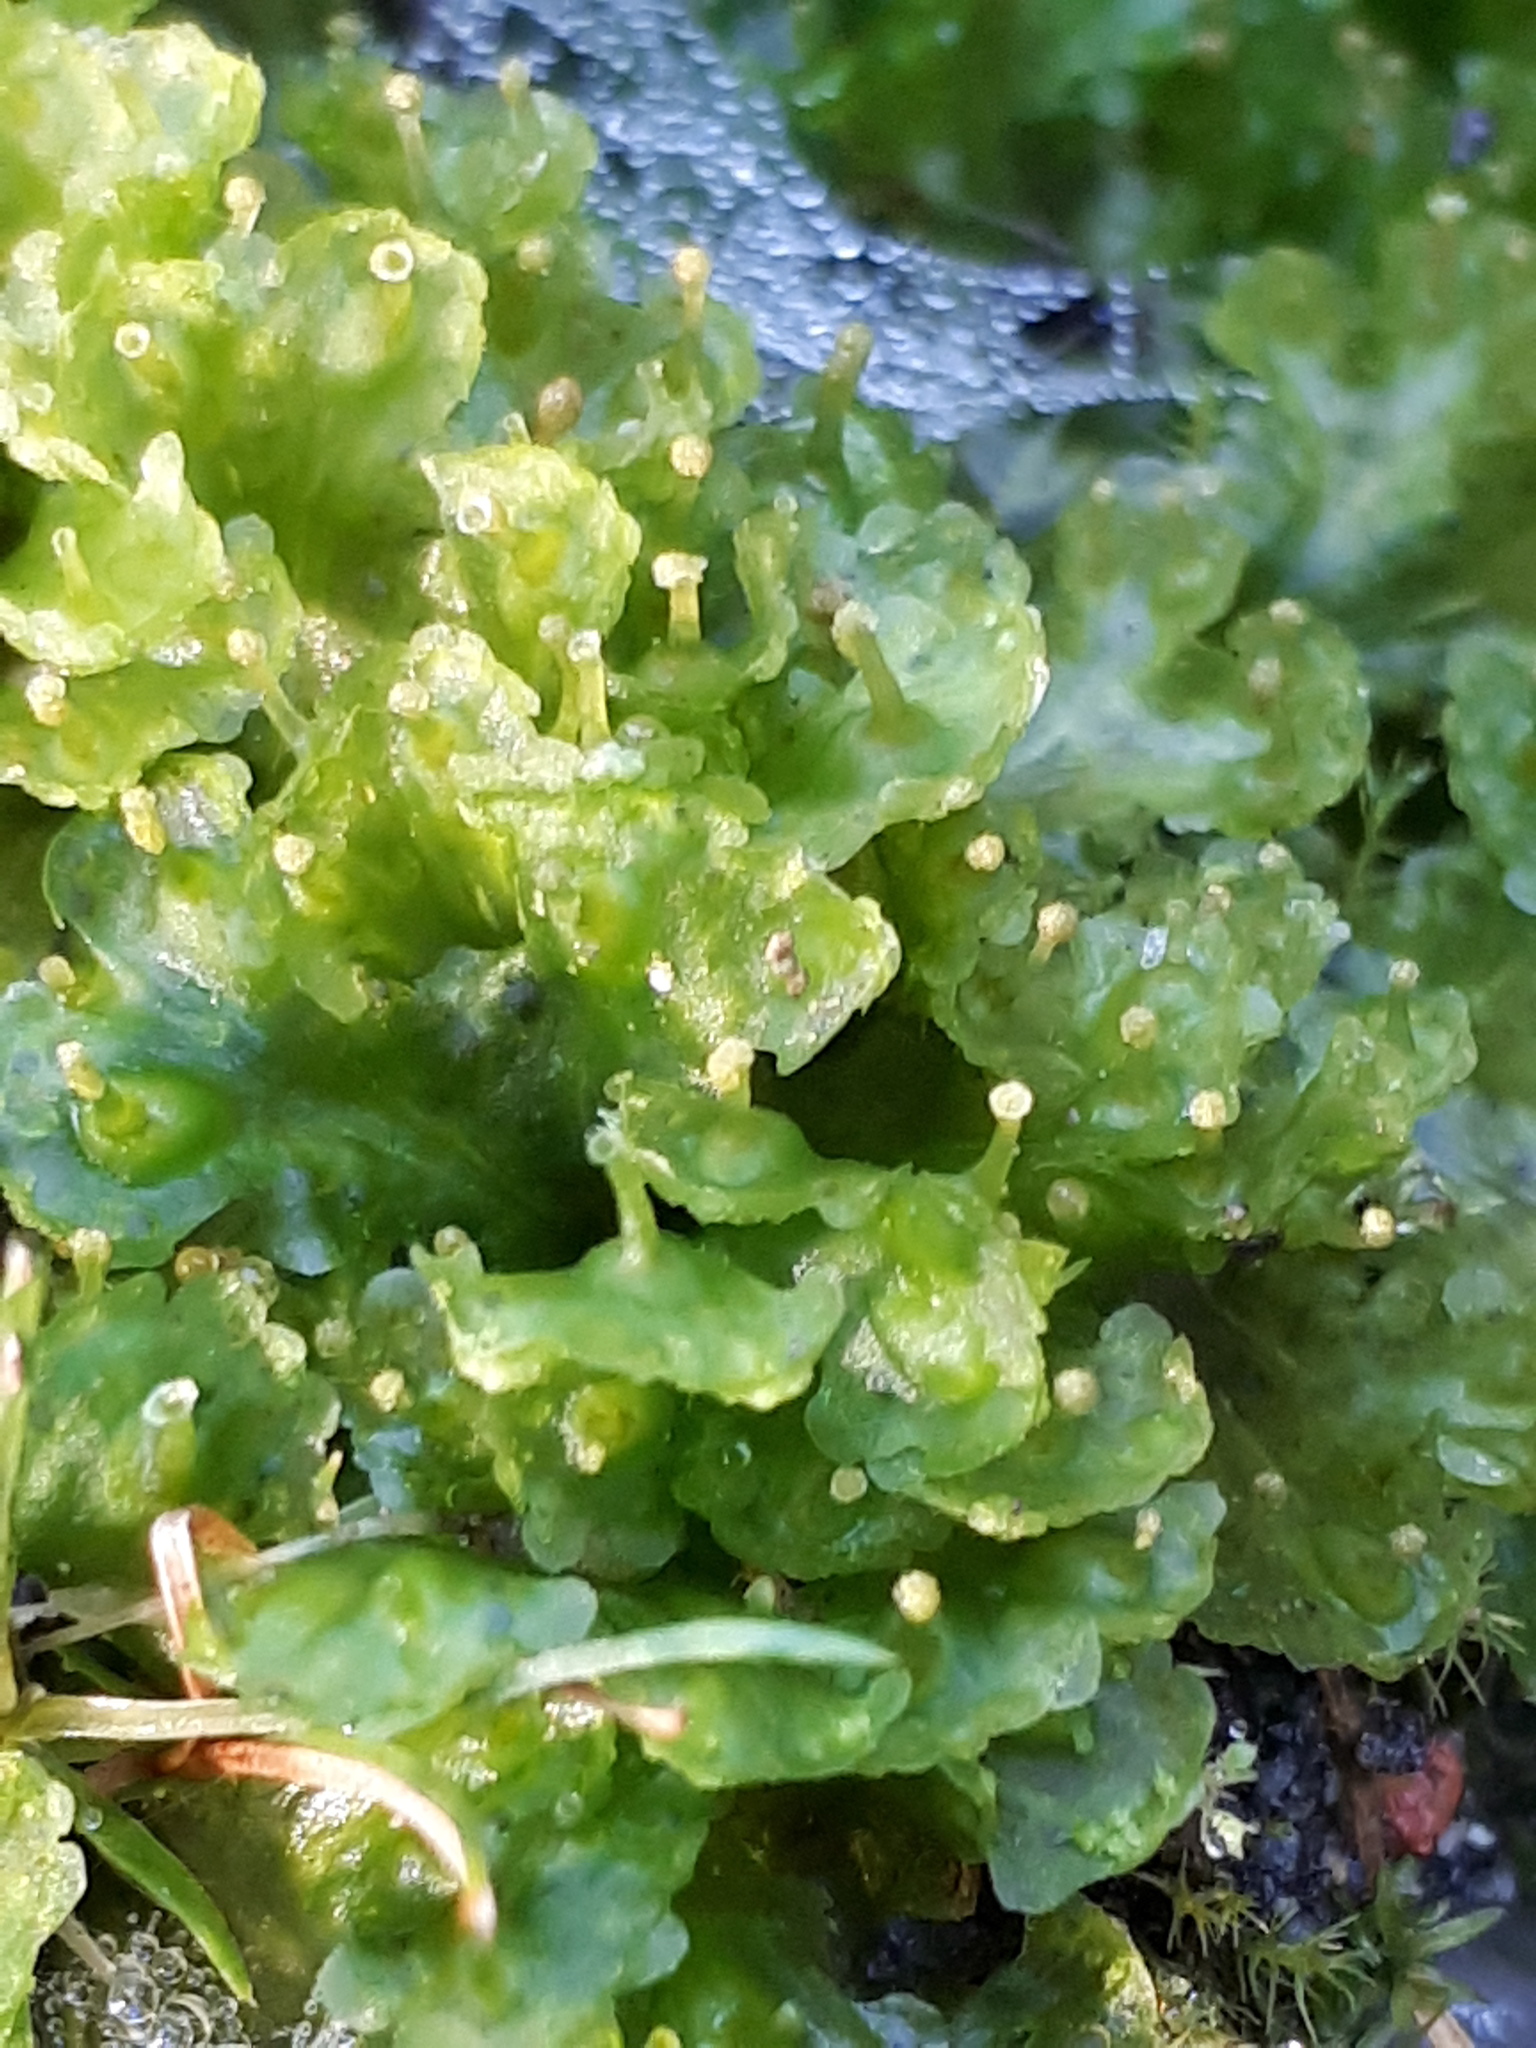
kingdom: Plantae
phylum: Marchantiophyta
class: Marchantiopsida
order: Blasiales
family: Blasiaceae
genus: Blasia
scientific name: Blasia pusilla
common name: Common kettlewort
